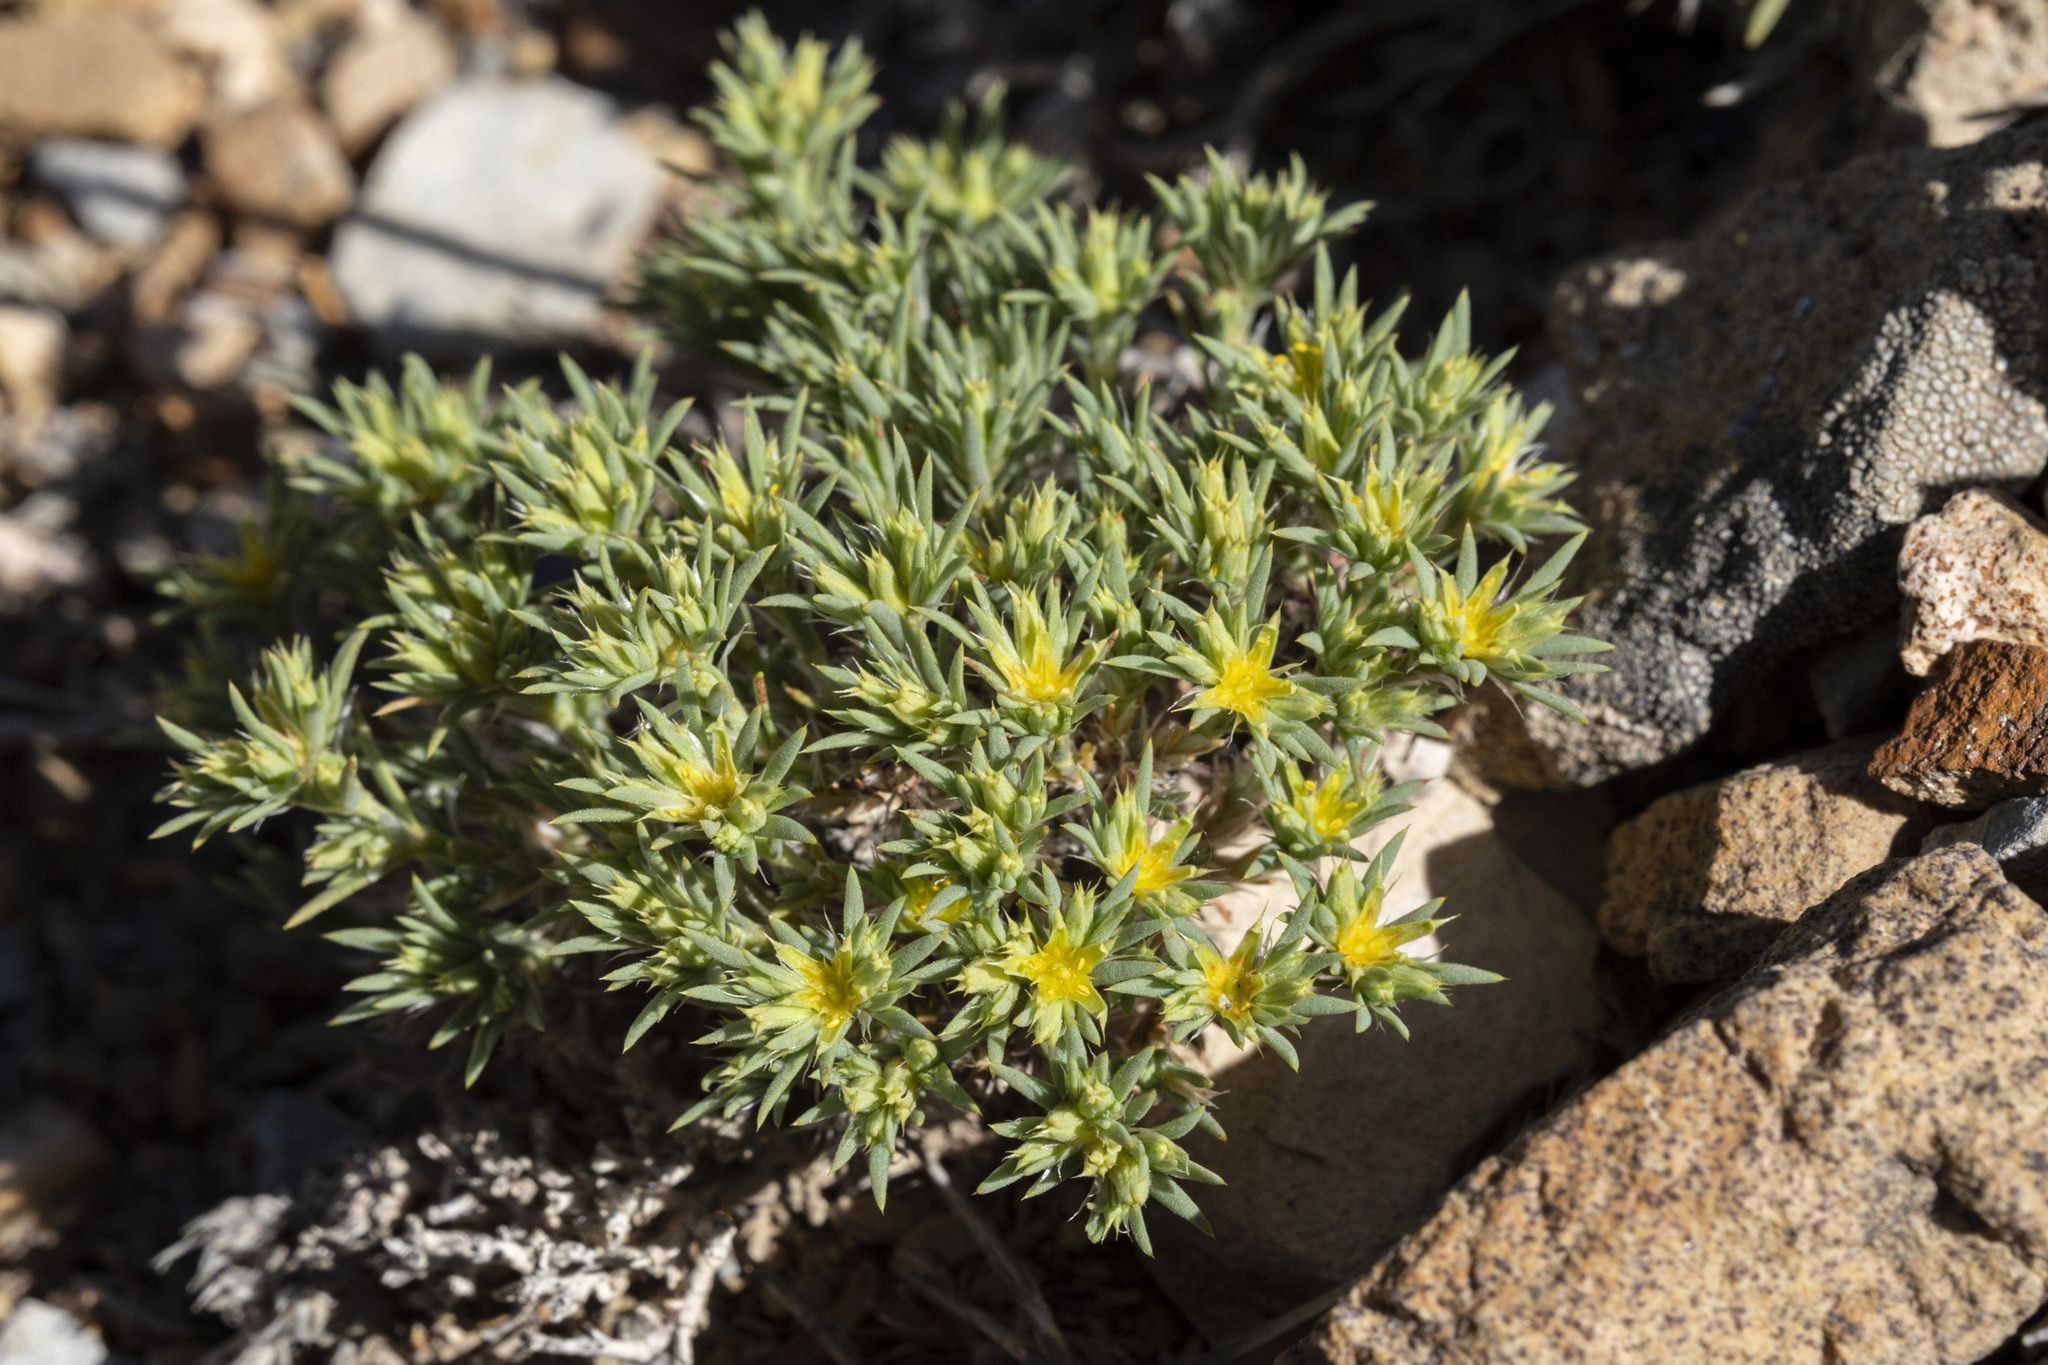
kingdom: Plantae
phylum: Tracheophyta
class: Magnoliopsida
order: Caryophyllales
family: Caryophyllaceae
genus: Paronychia
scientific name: Paronychia sessiliflora
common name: Creeping nailwort
